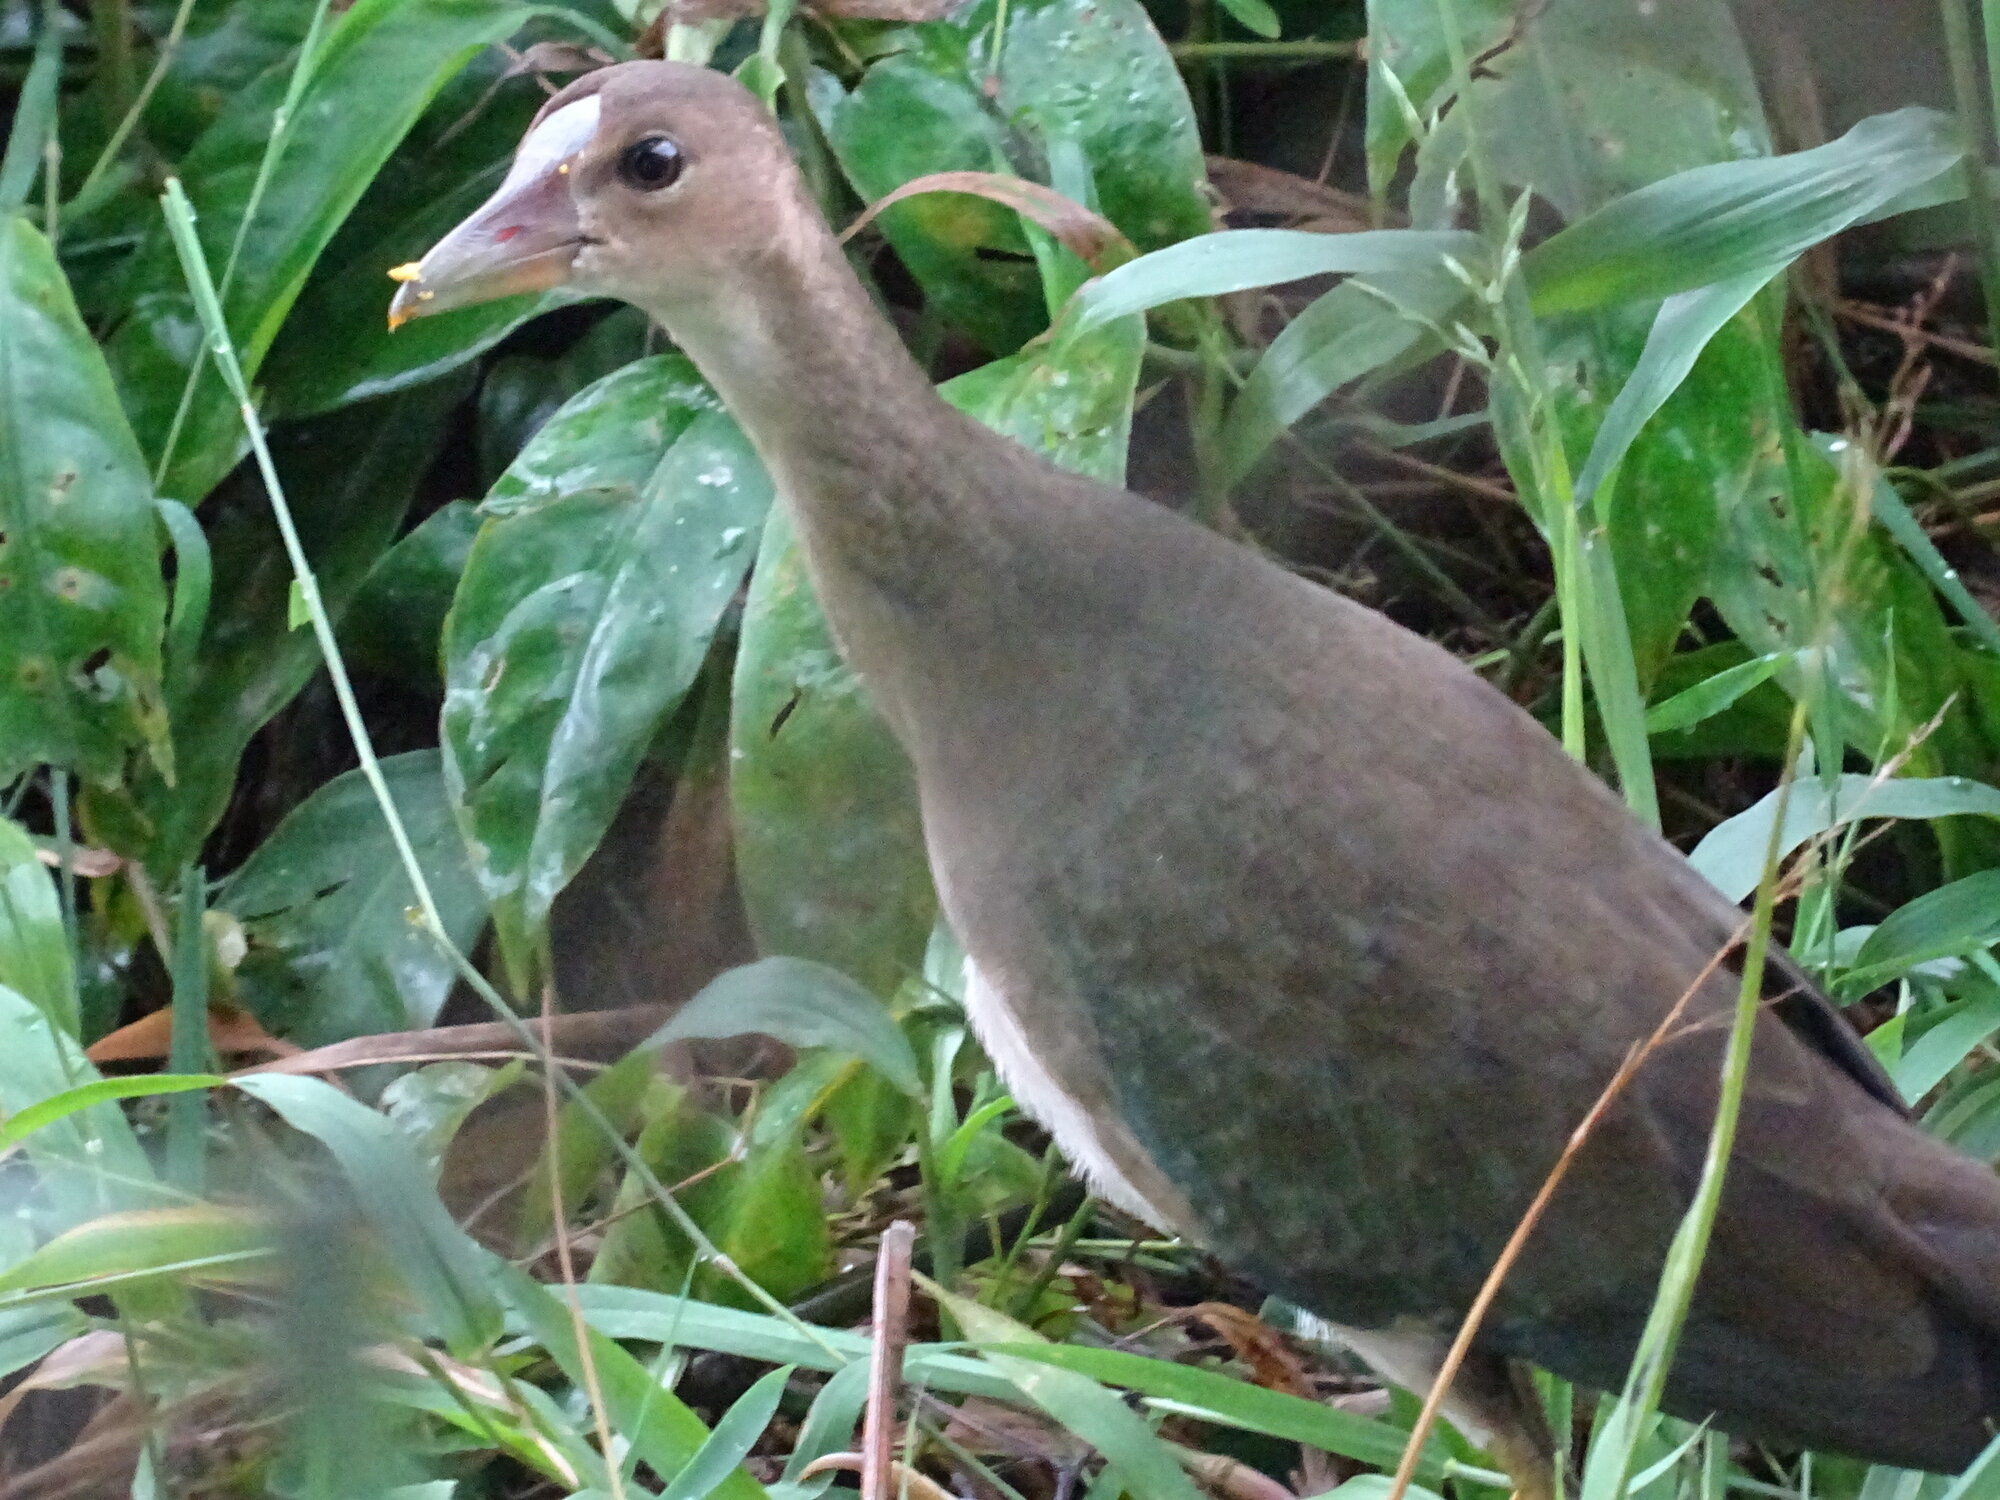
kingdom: Animalia
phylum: Chordata
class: Aves
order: Gruiformes
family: Rallidae
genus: Porphyrio
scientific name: Porphyrio martinica
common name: Purple gallinule
